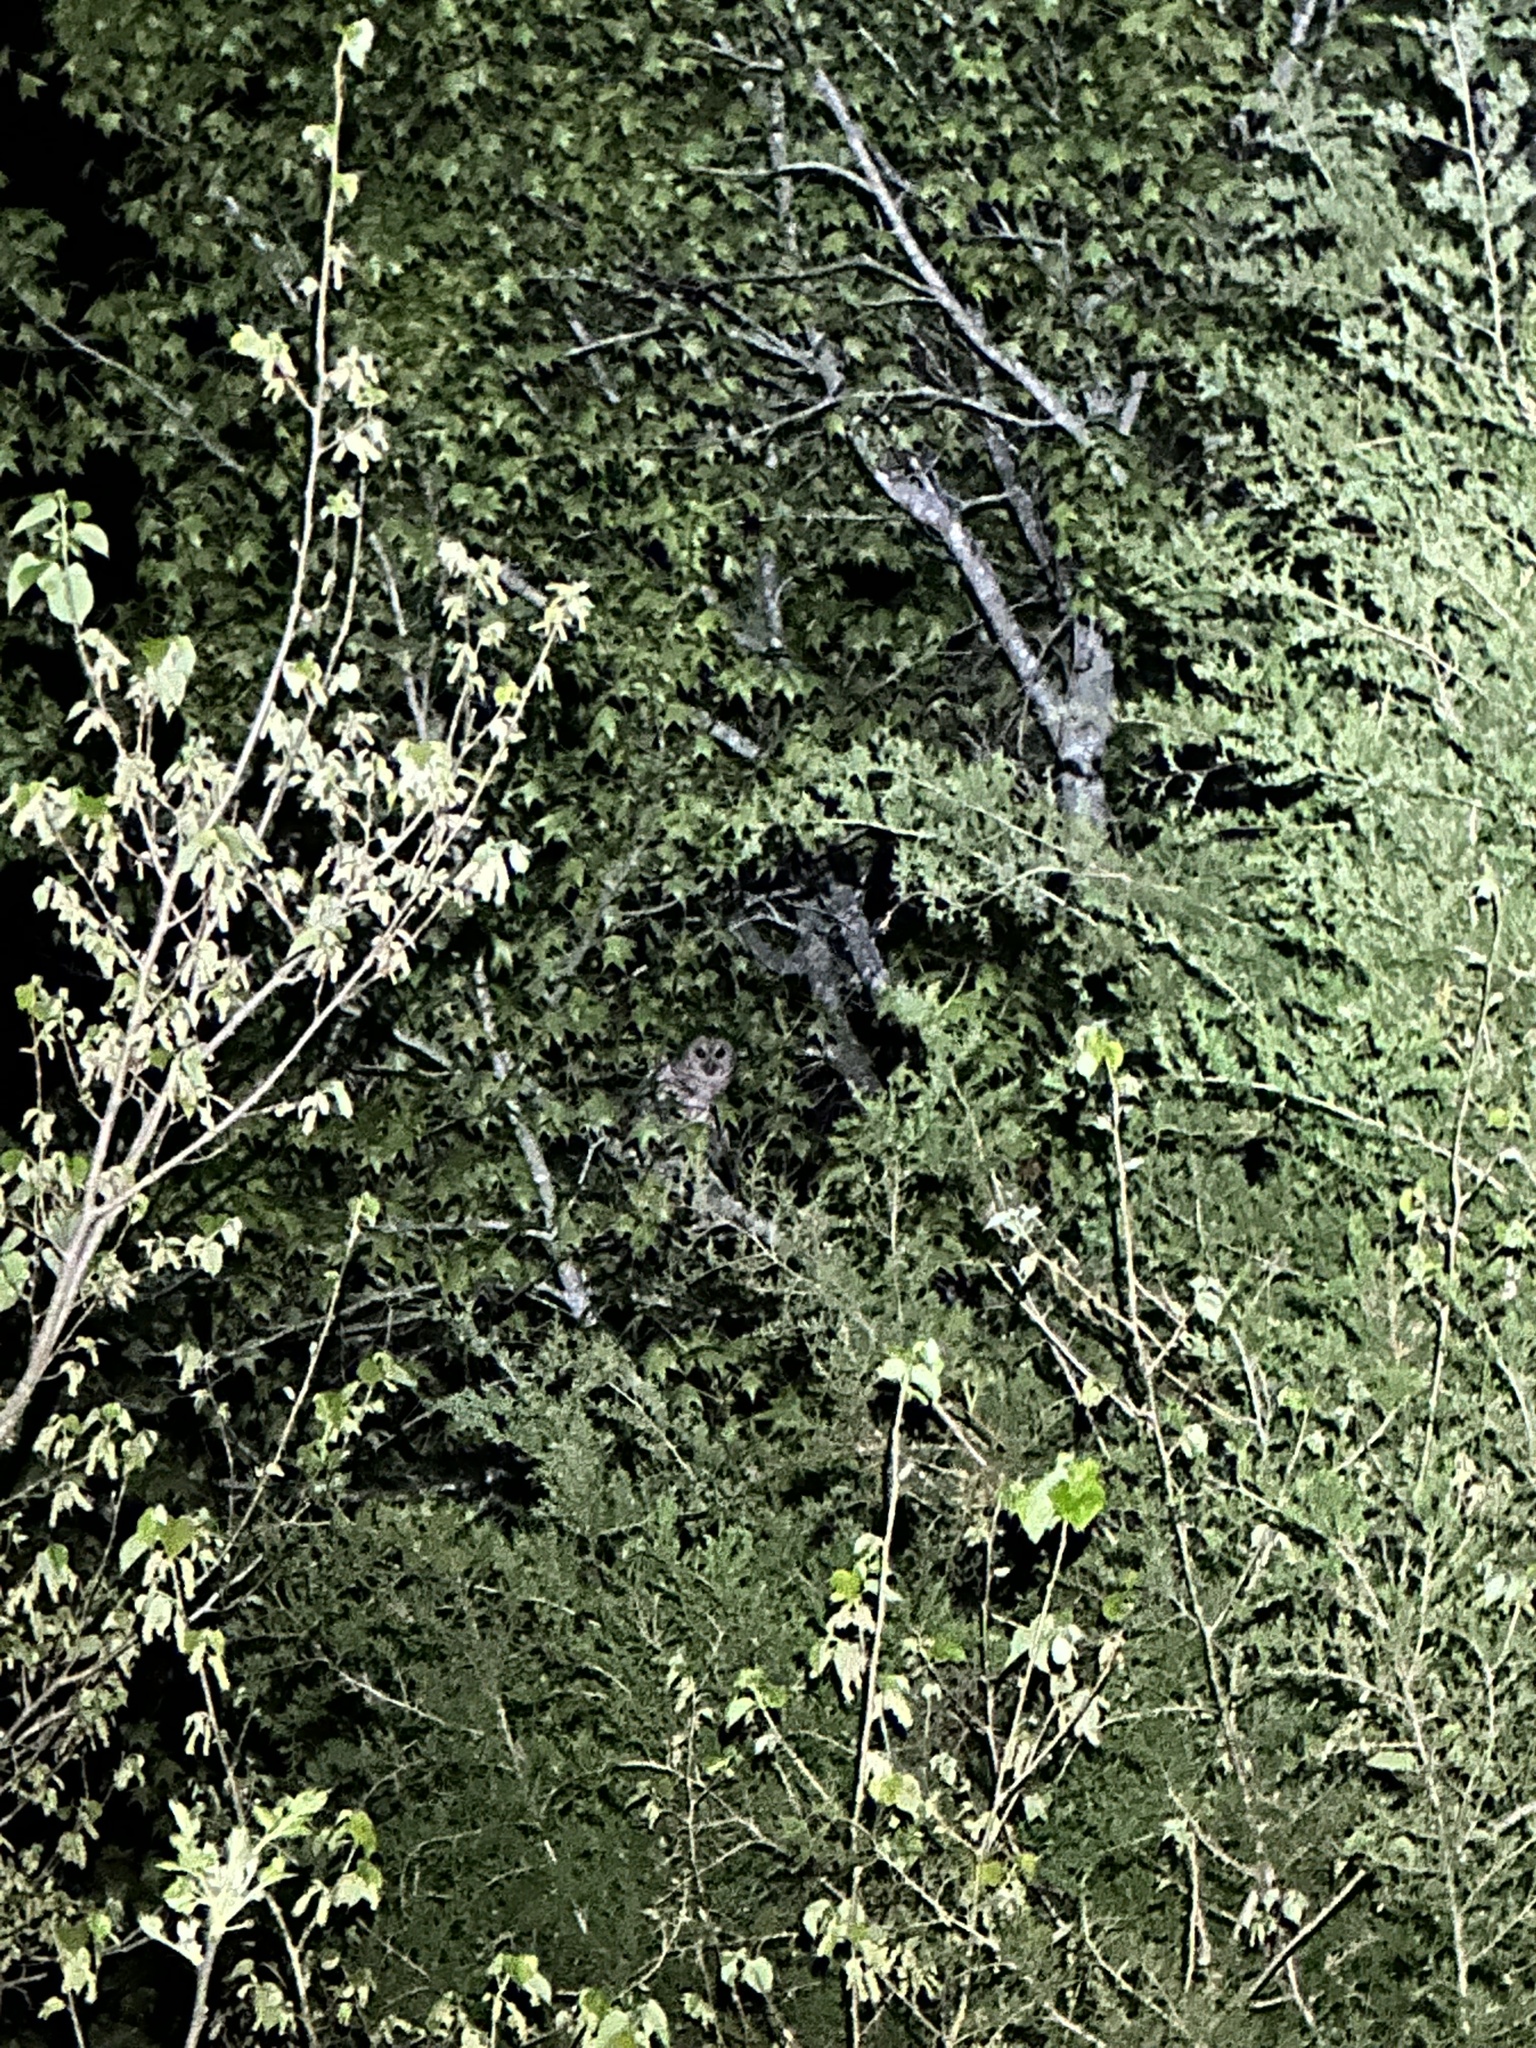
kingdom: Animalia
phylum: Chordata
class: Aves
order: Strigiformes
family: Strigidae
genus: Strix
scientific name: Strix varia
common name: Barred owl
